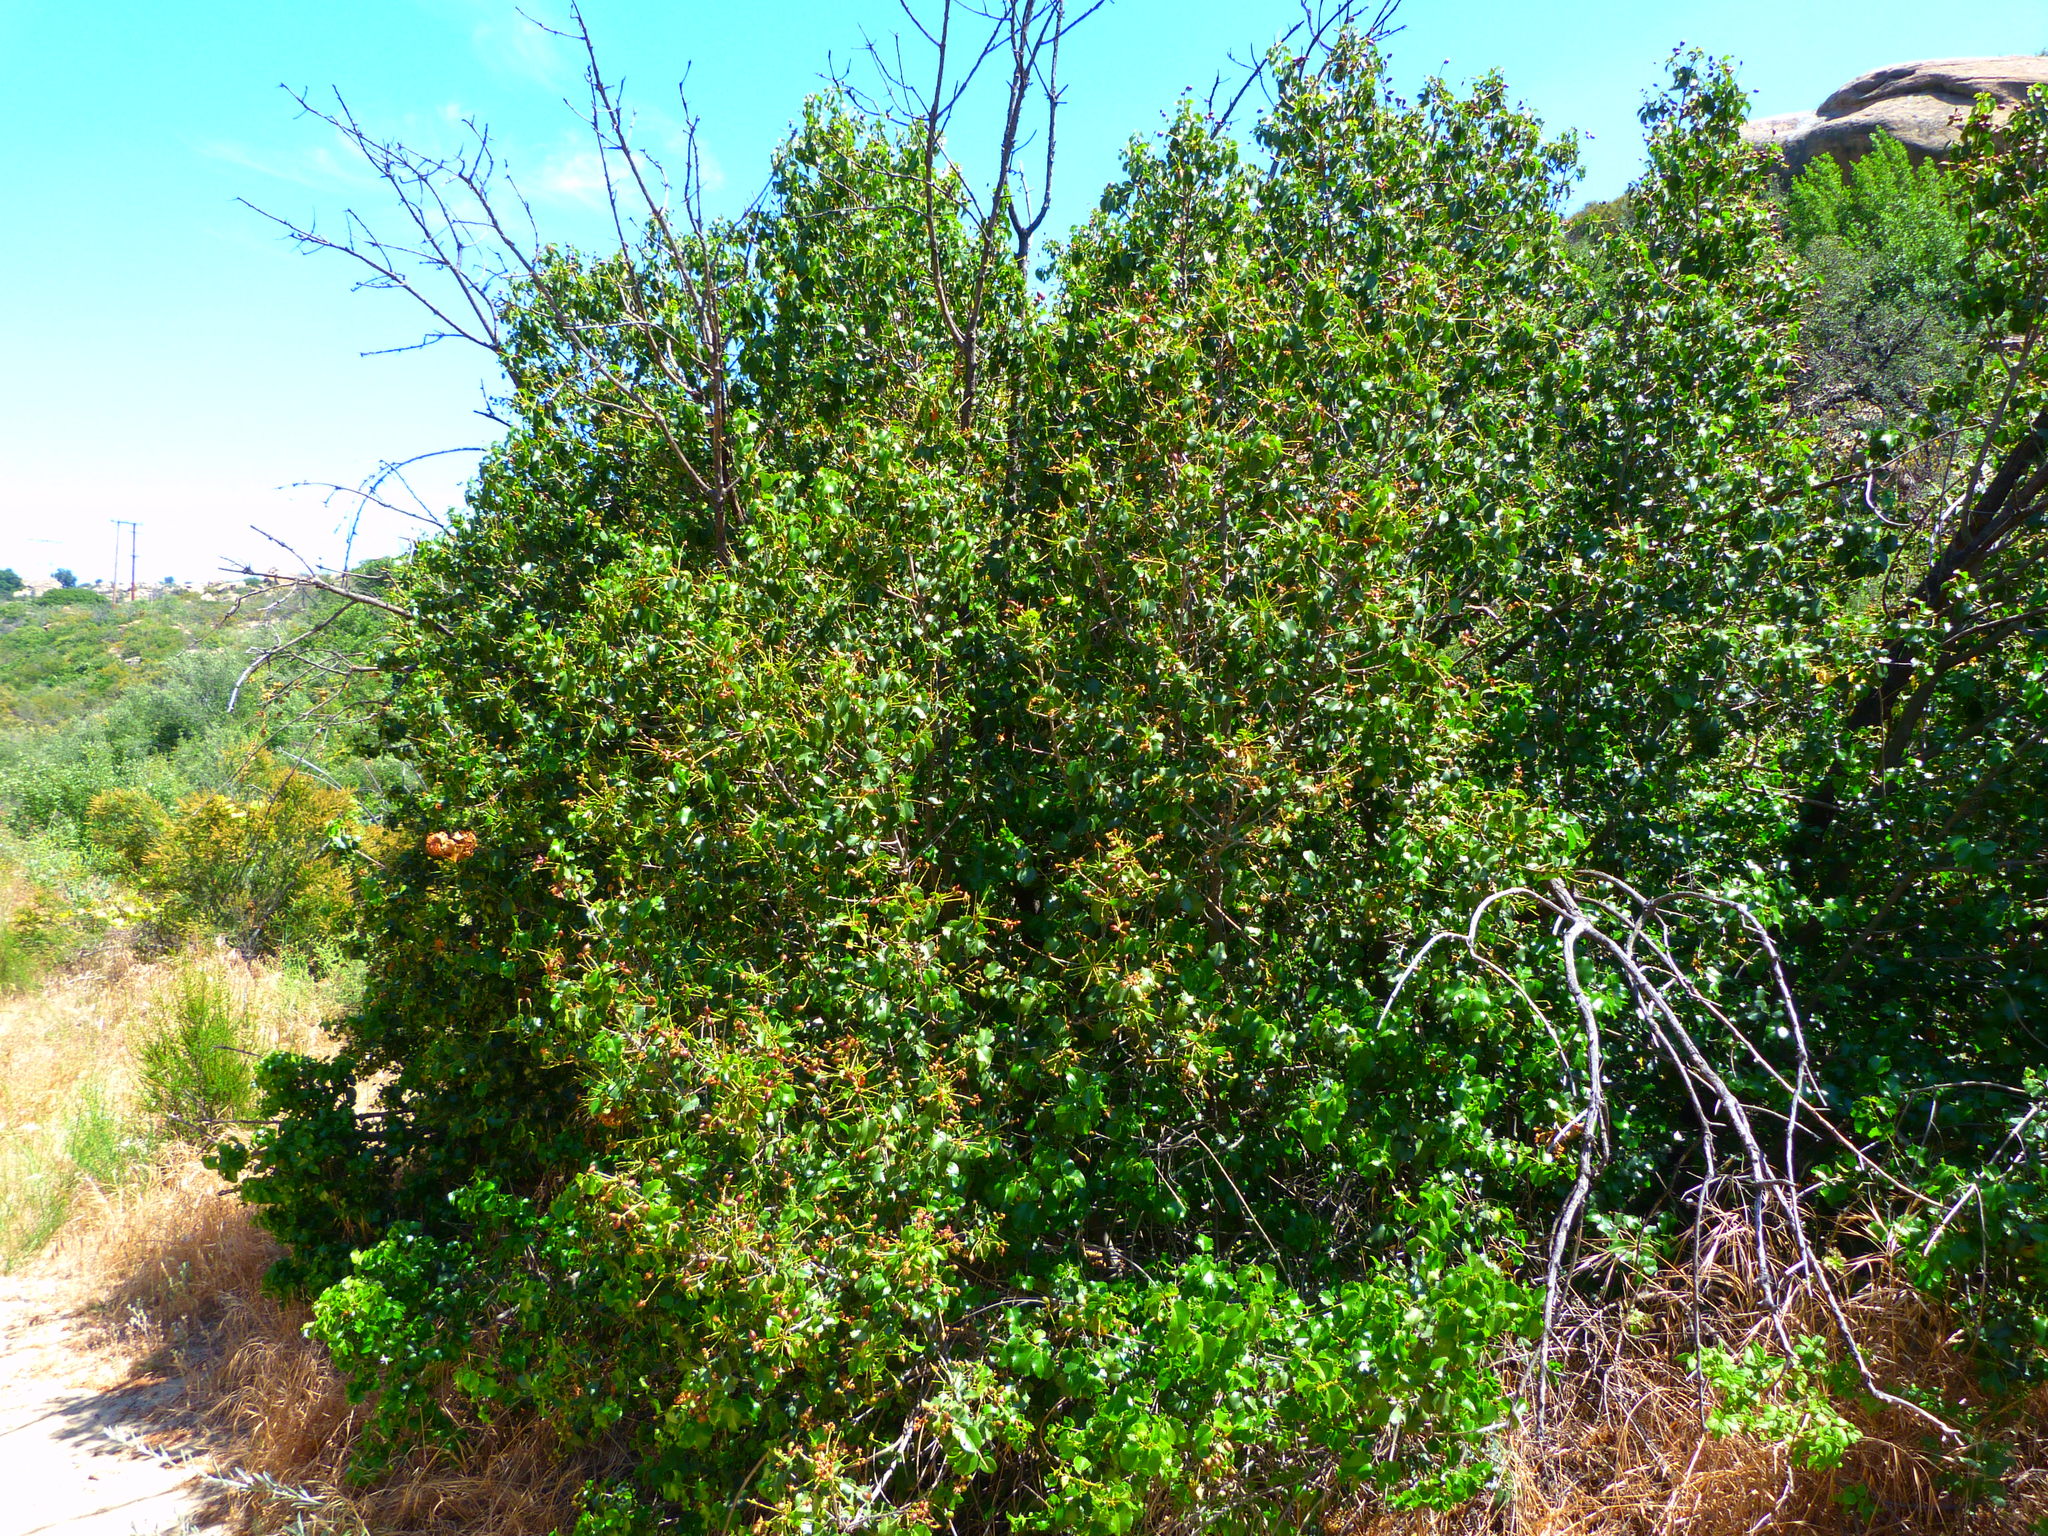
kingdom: Plantae
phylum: Tracheophyta
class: Magnoliopsida
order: Rosales
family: Rosaceae
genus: Prunus
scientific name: Prunus ilicifolia
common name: Hollyleaf cherry
